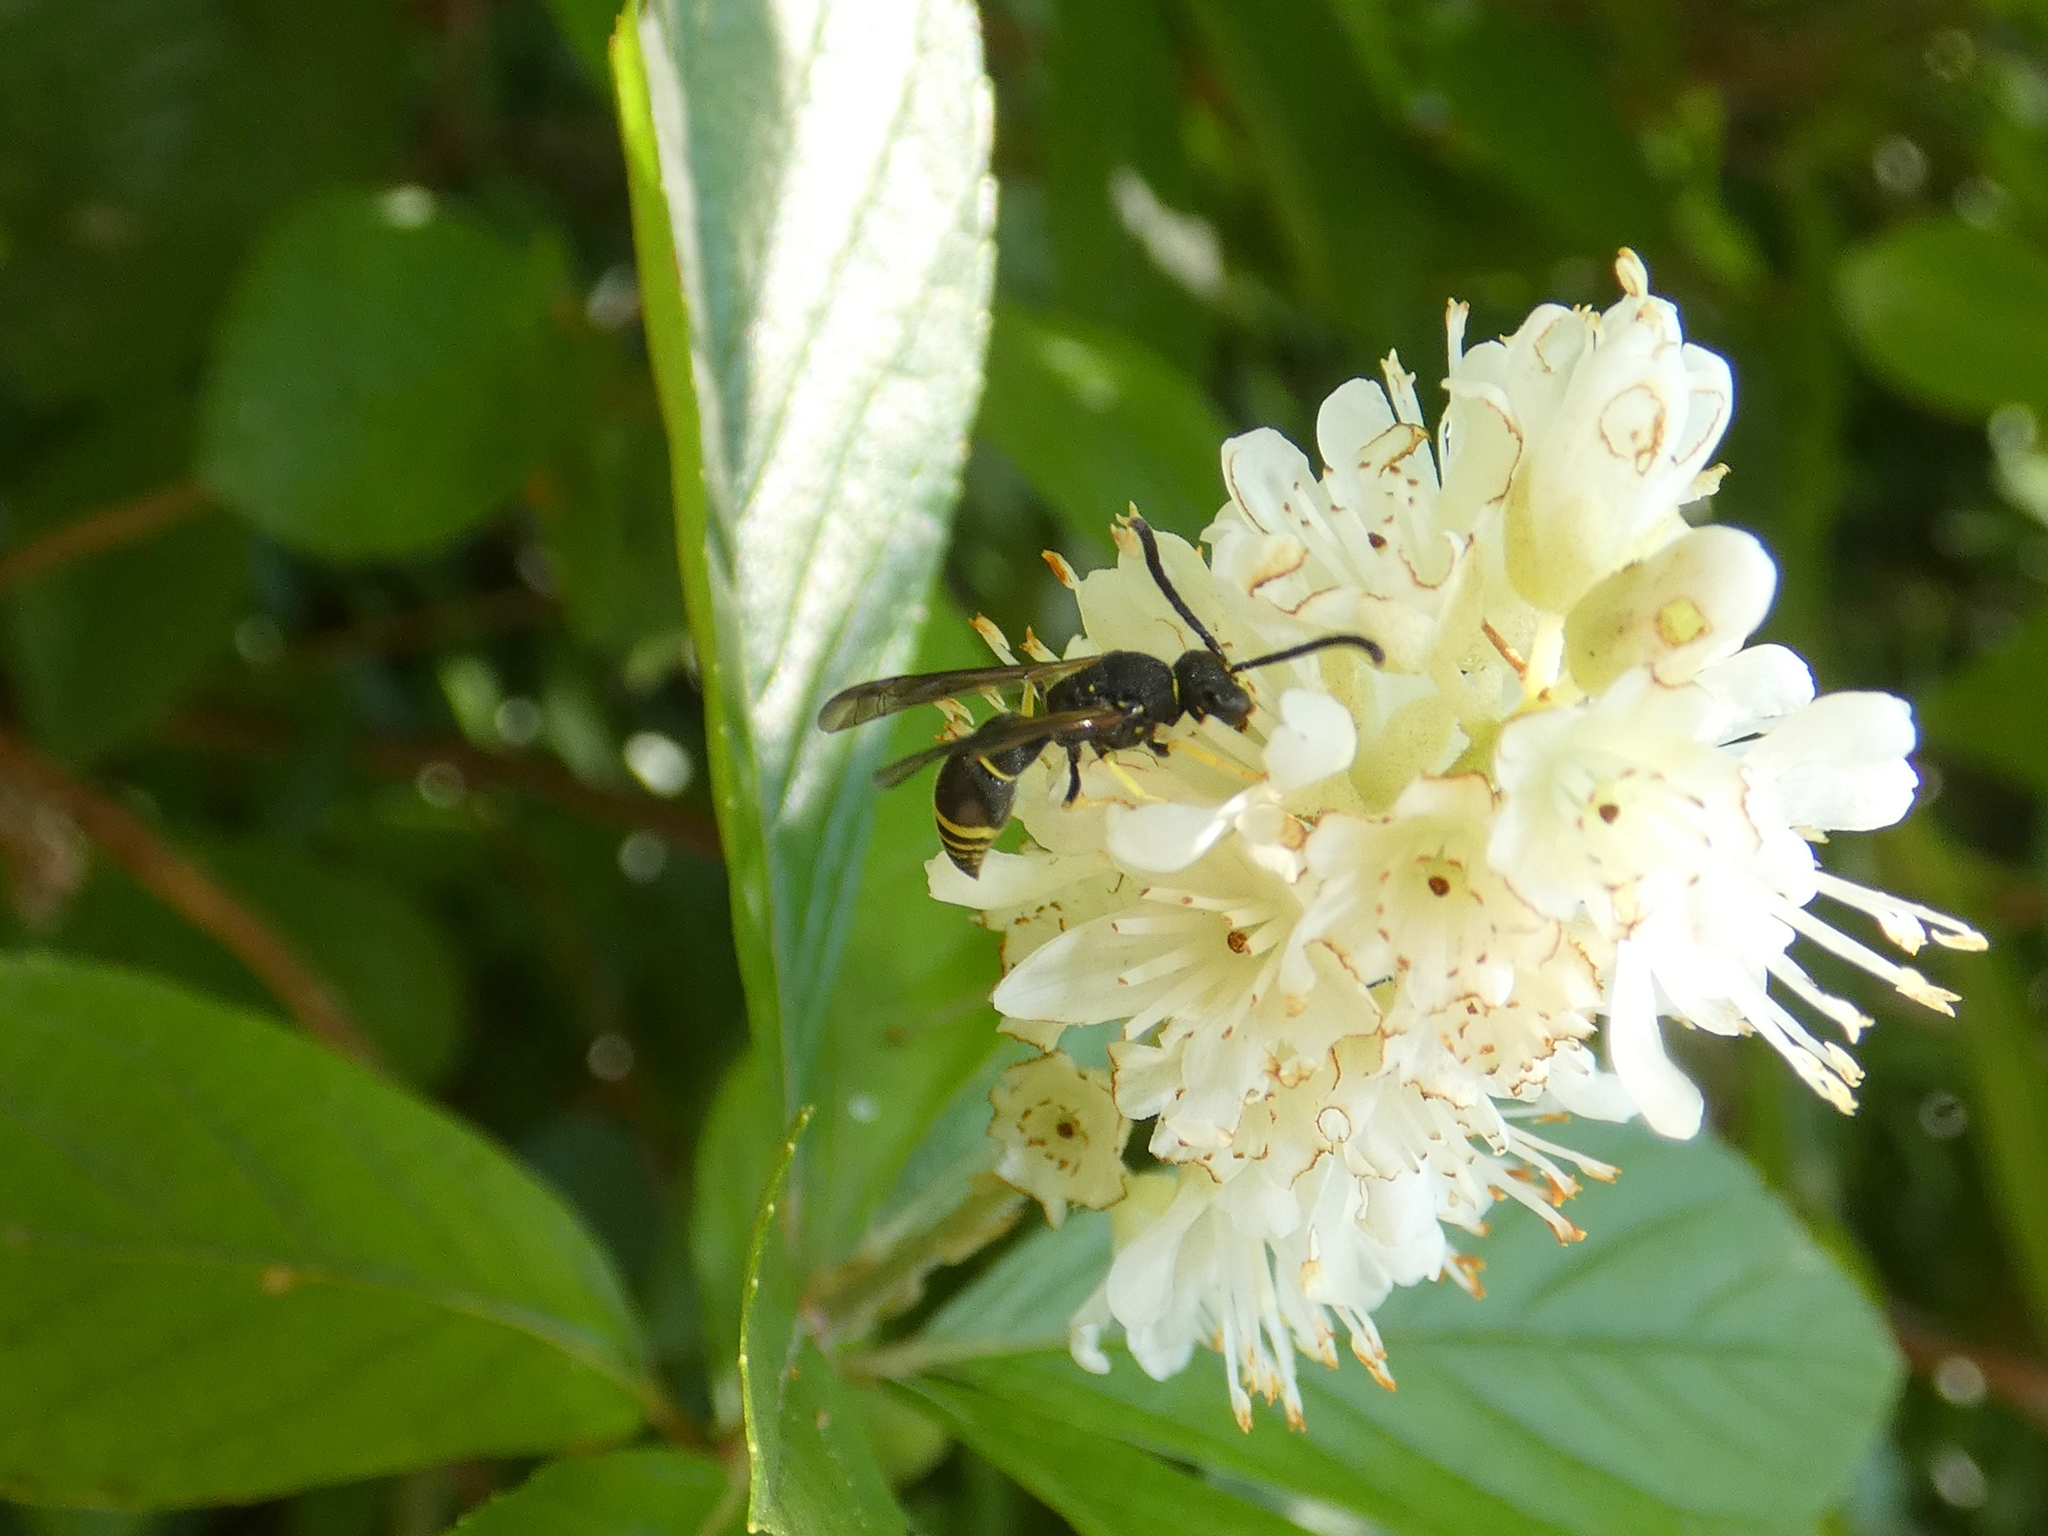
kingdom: Animalia
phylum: Arthropoda
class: Insecta
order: Hymenoptera
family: Vespidae
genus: Ancistrocerus
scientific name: Ancistrocerus adiabatus
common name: Bramble mason wasp
